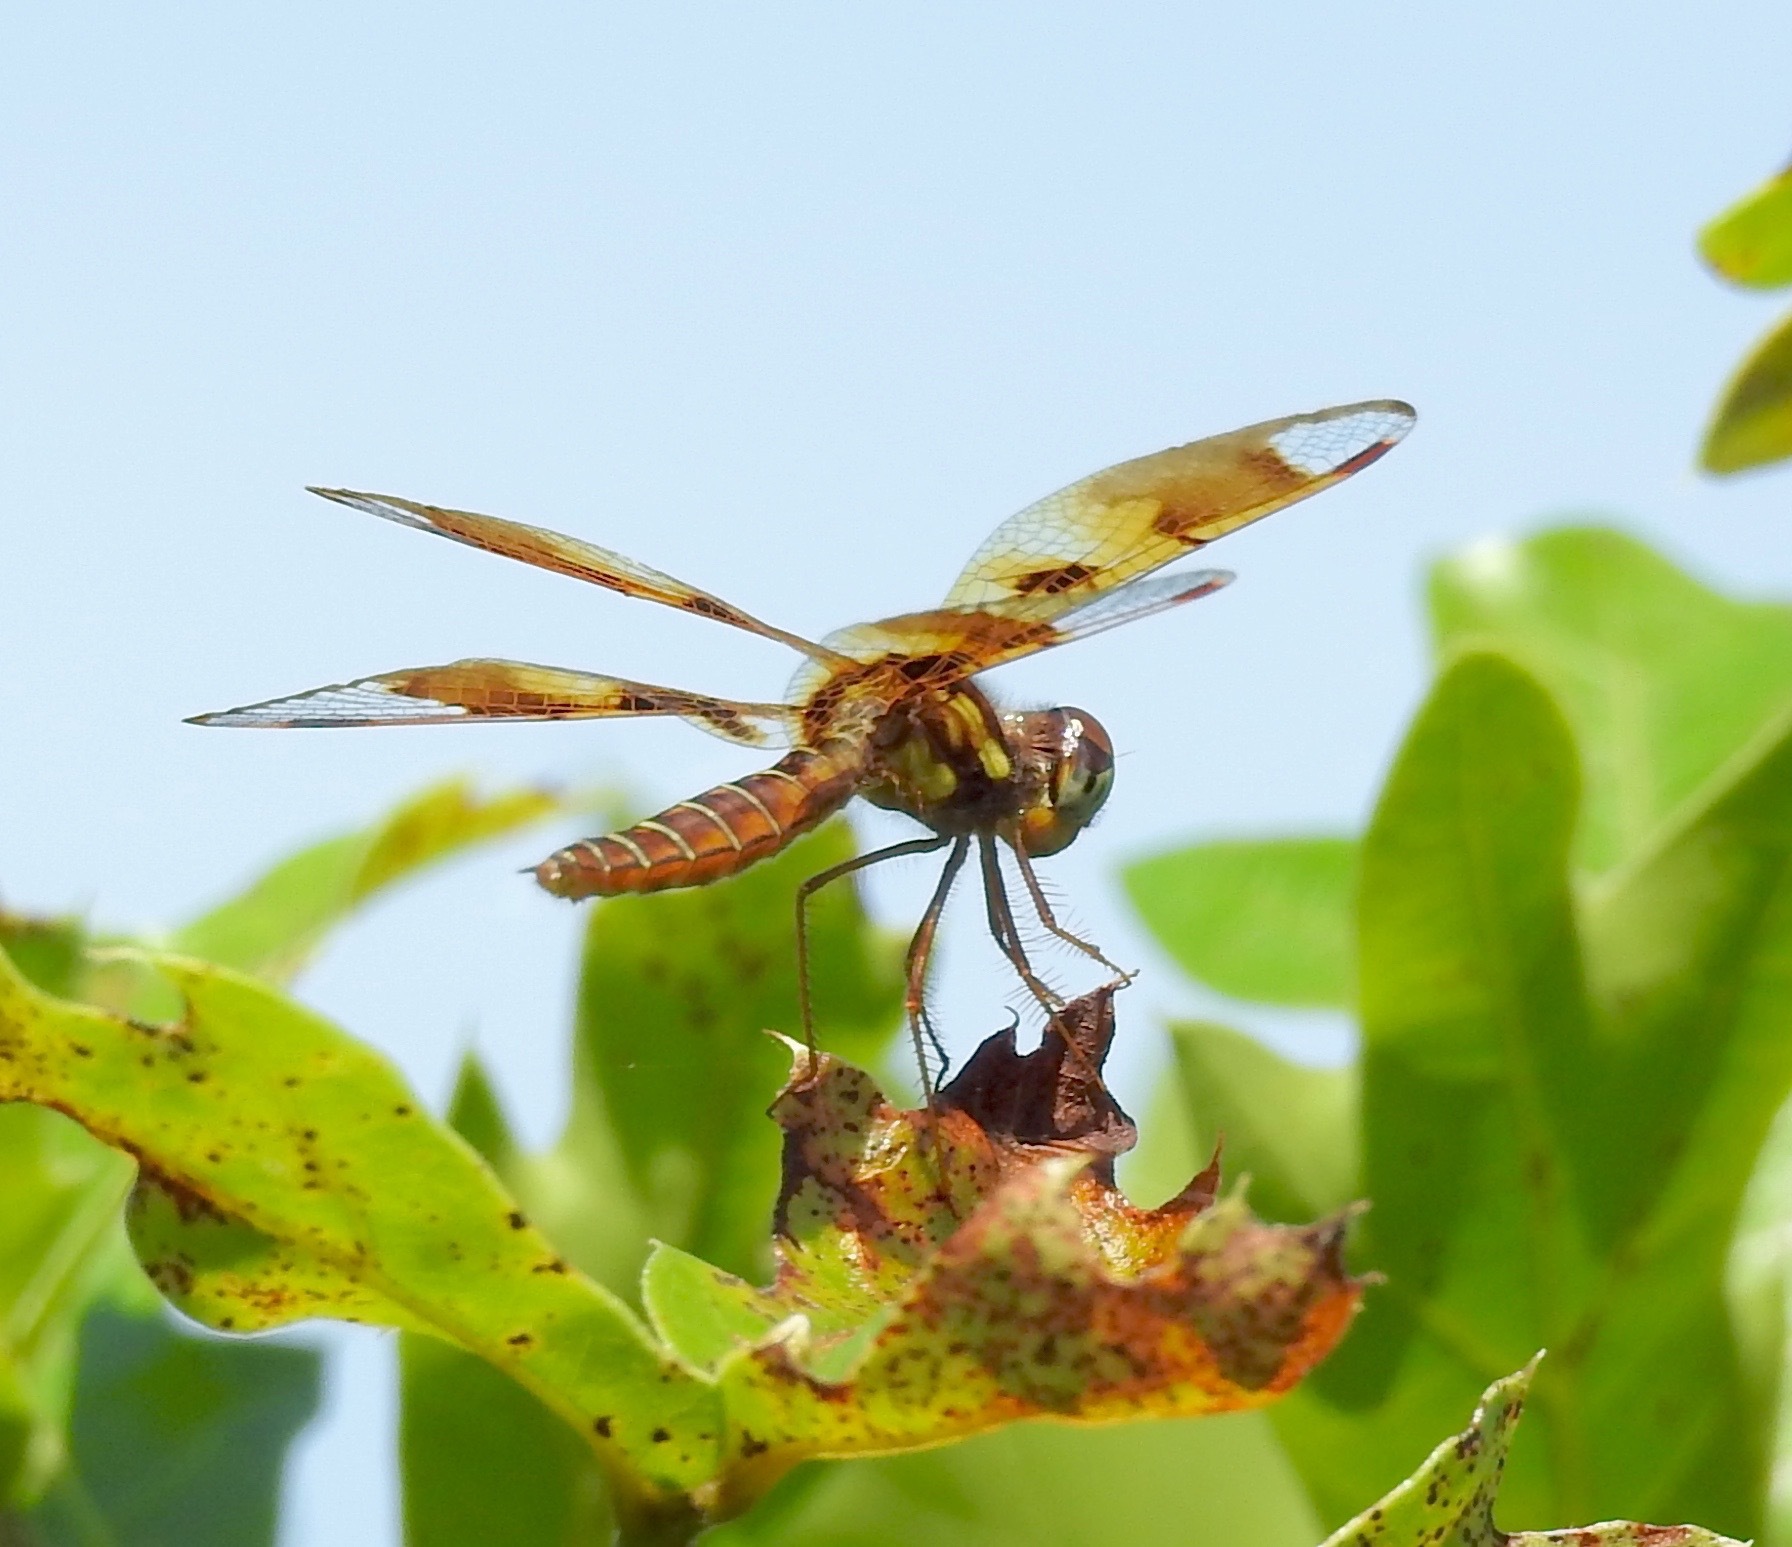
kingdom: Animalia
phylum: Arthropoda
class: Insecta
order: Odonata
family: Libellulidae
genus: Perithemis
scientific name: Perithemis tenera
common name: Eastern amberwing
